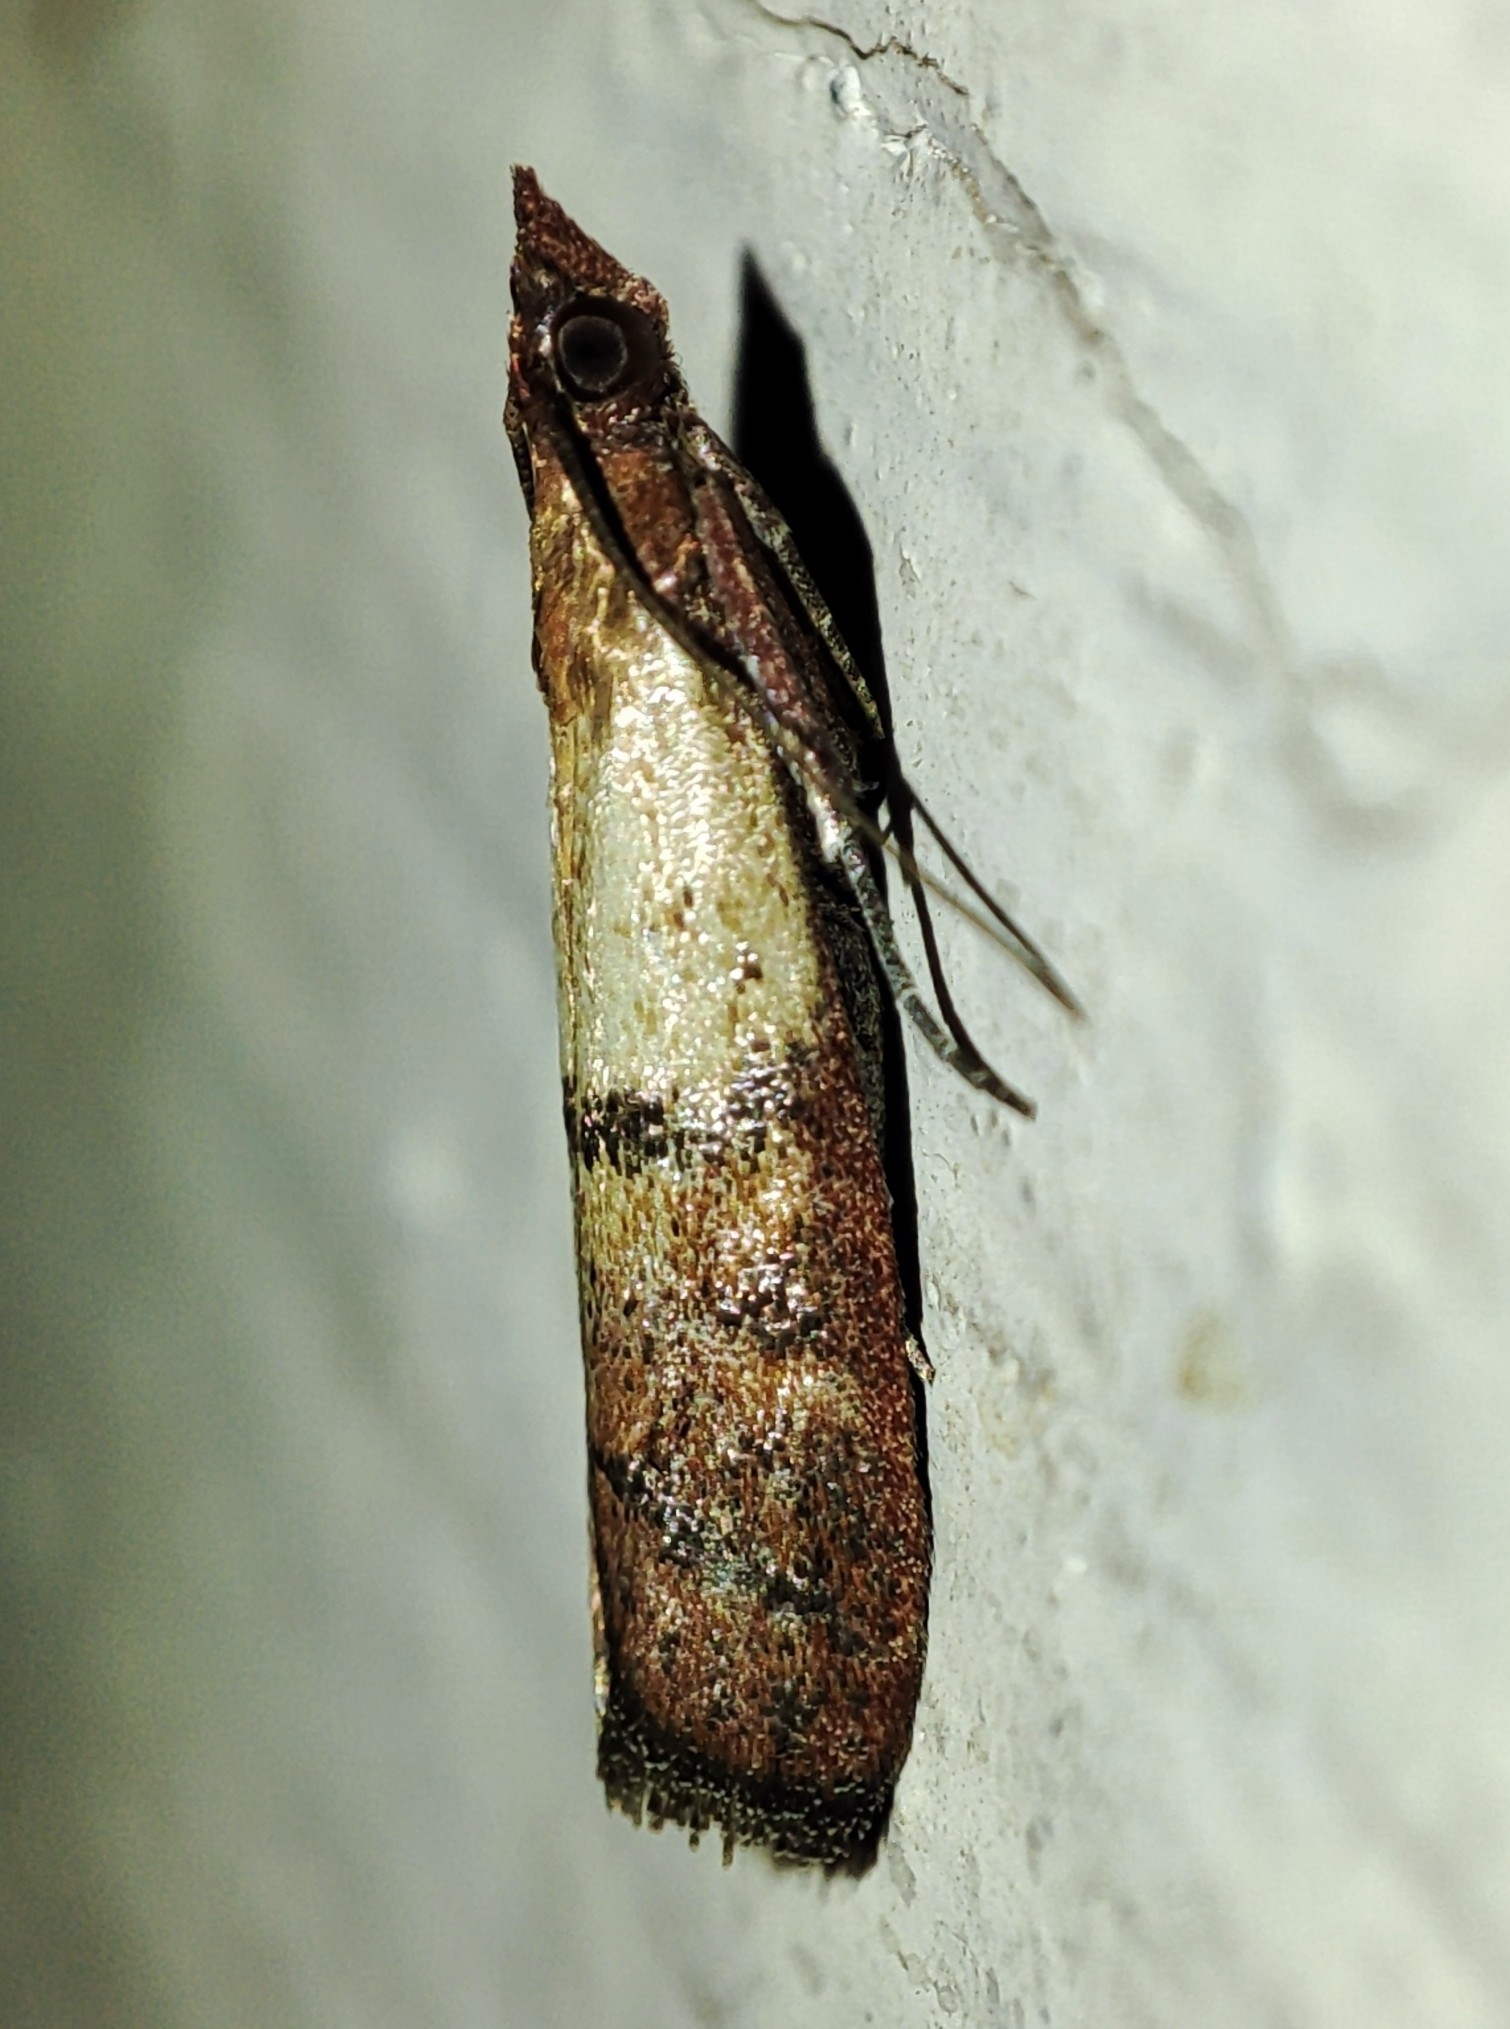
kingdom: Animalia
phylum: Arthropoda
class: Insecta
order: Lepidoptera
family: Pyralidae
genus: Plodia
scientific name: Plodia interpunctella
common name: Indian meal moth
